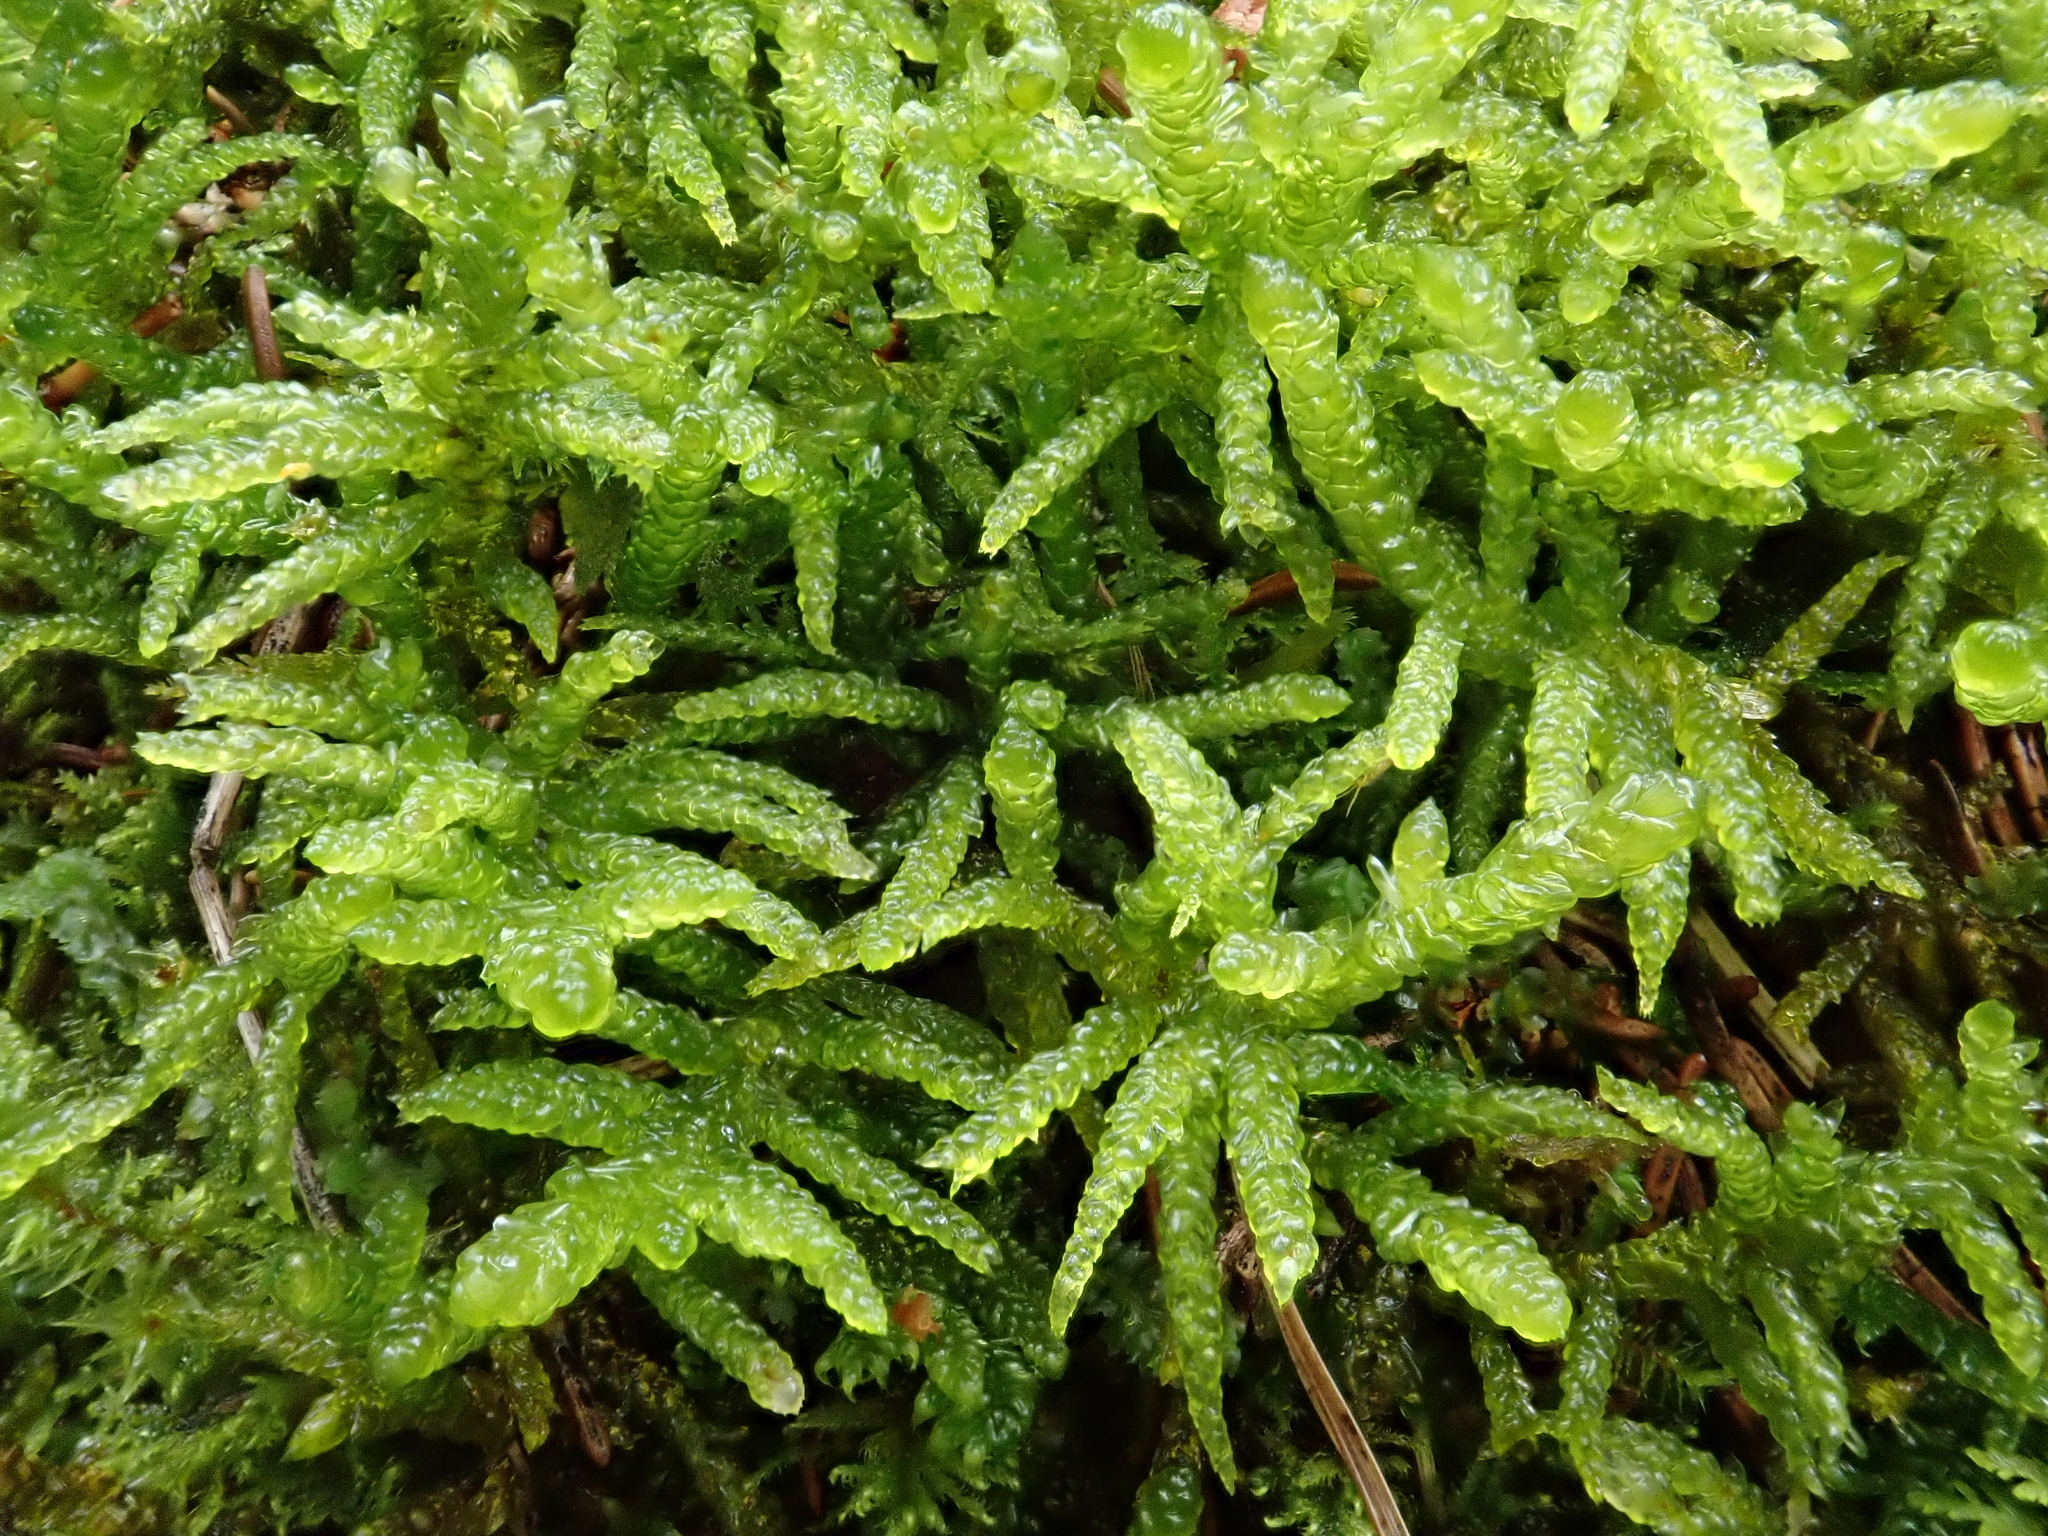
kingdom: Plantae
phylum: Bryophyta
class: Bryopsida
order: Hypnales
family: Brachytheciaceae
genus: Pseudoscleropodium
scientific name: Pseudoscleropodium purum
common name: Neat feather-moss
